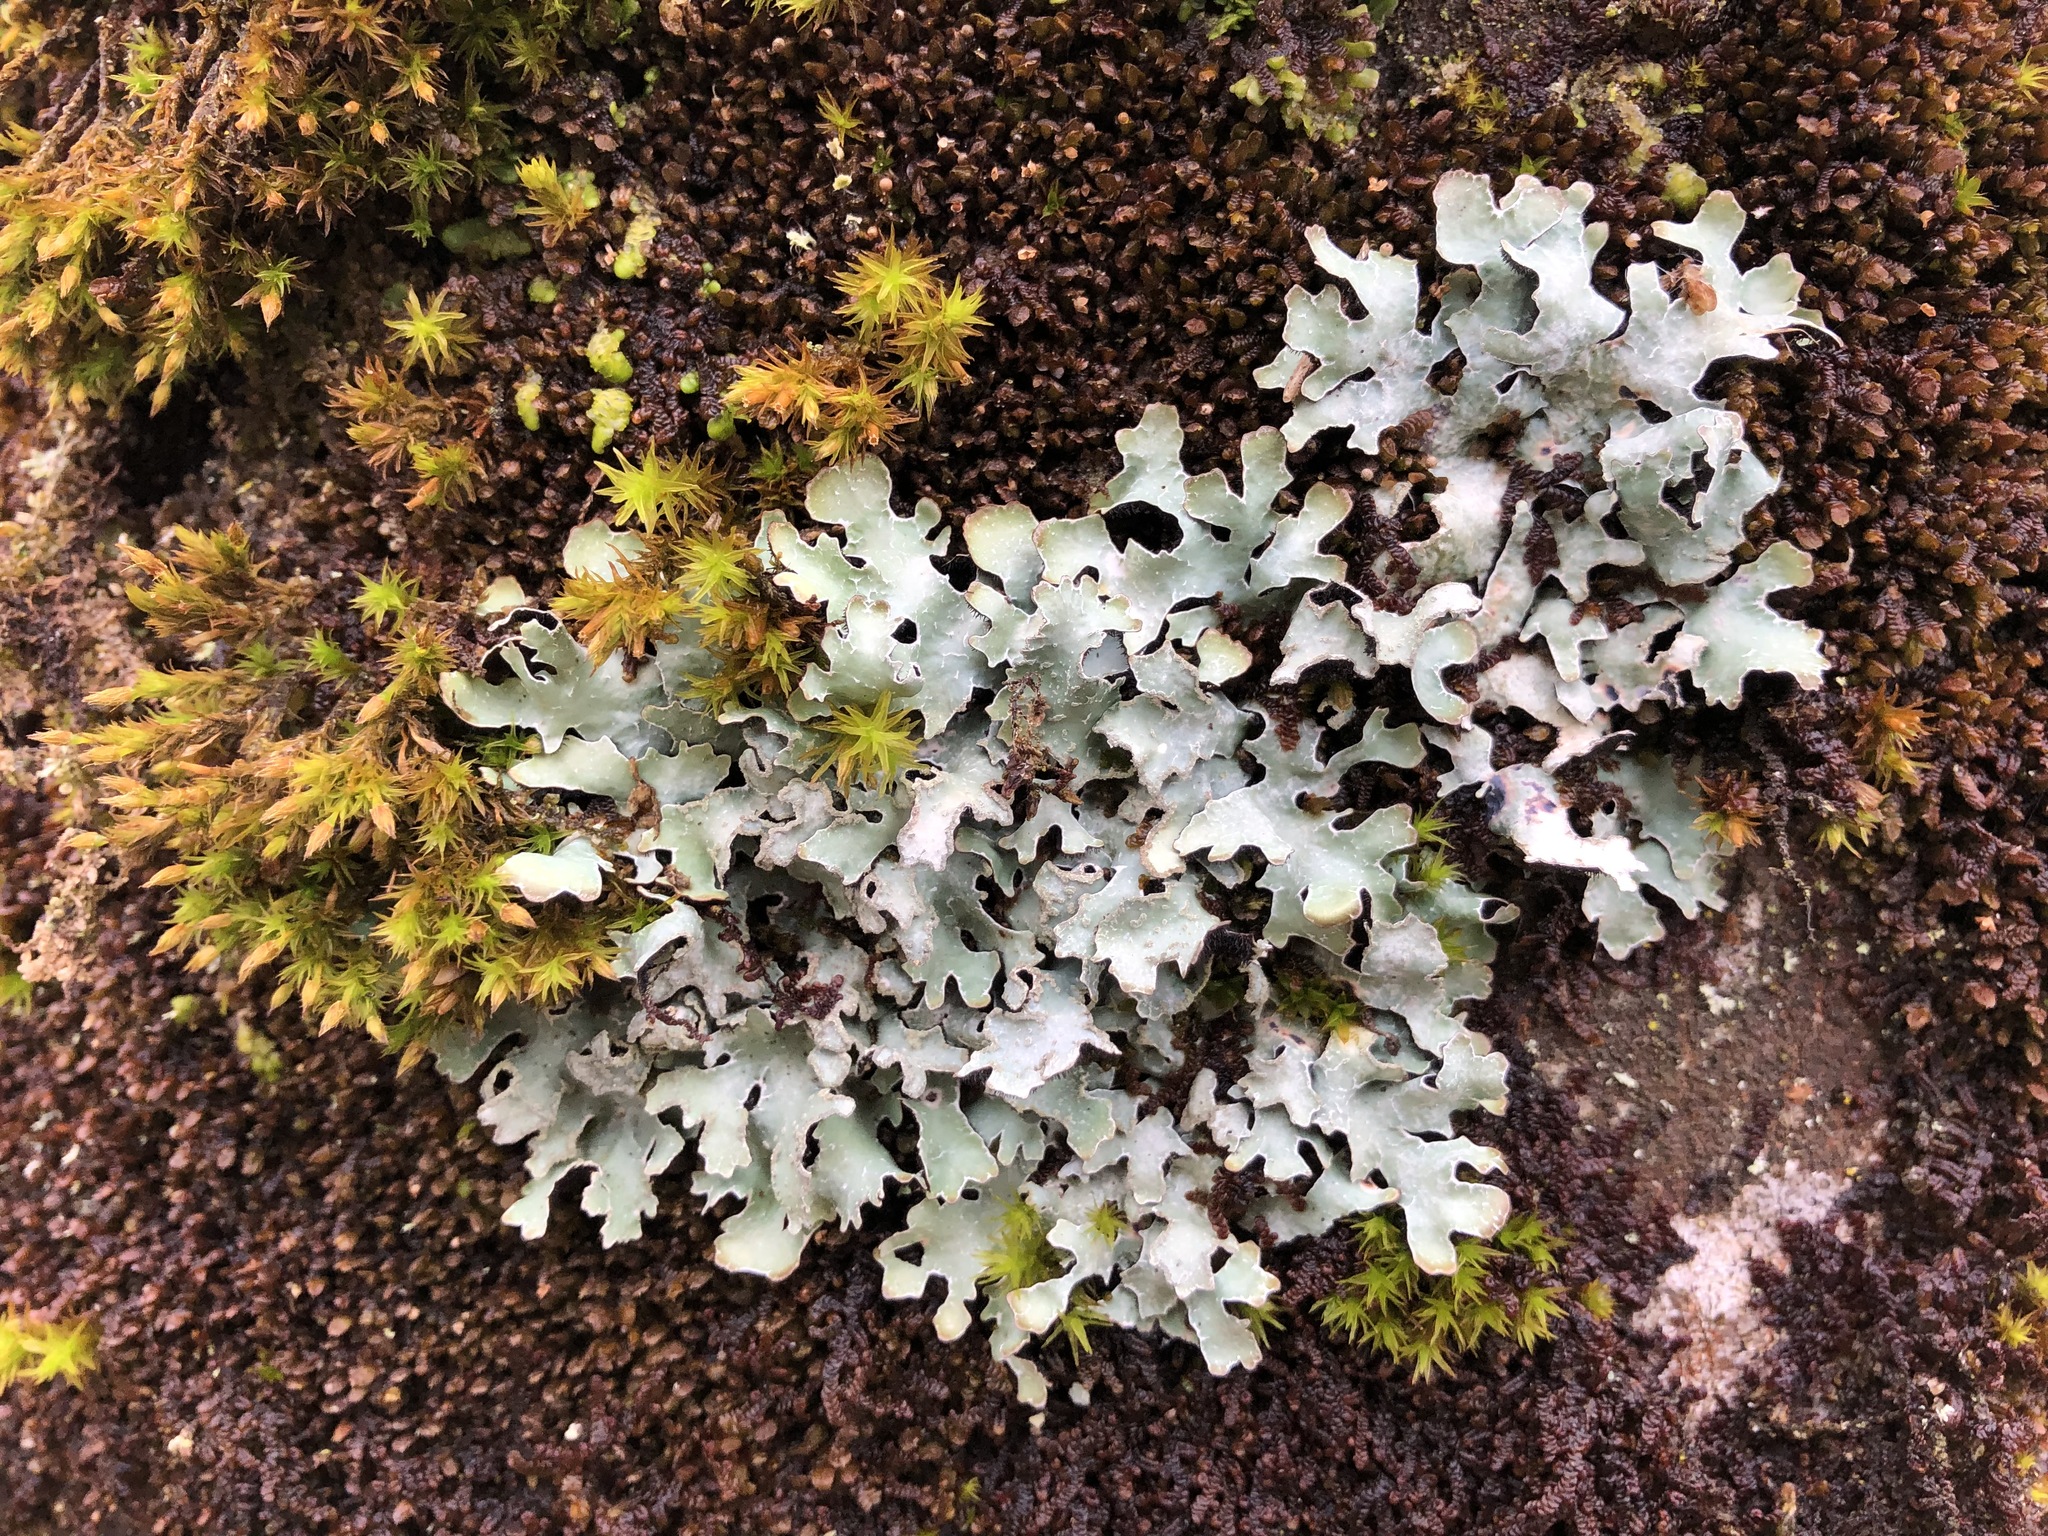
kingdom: Fungi
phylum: Ascomycota
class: Lecanoromycetes
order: Lecanorales
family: Parmeliaceae
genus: Parmelia
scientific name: Parmelia sulcata
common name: Netted shield lichen
